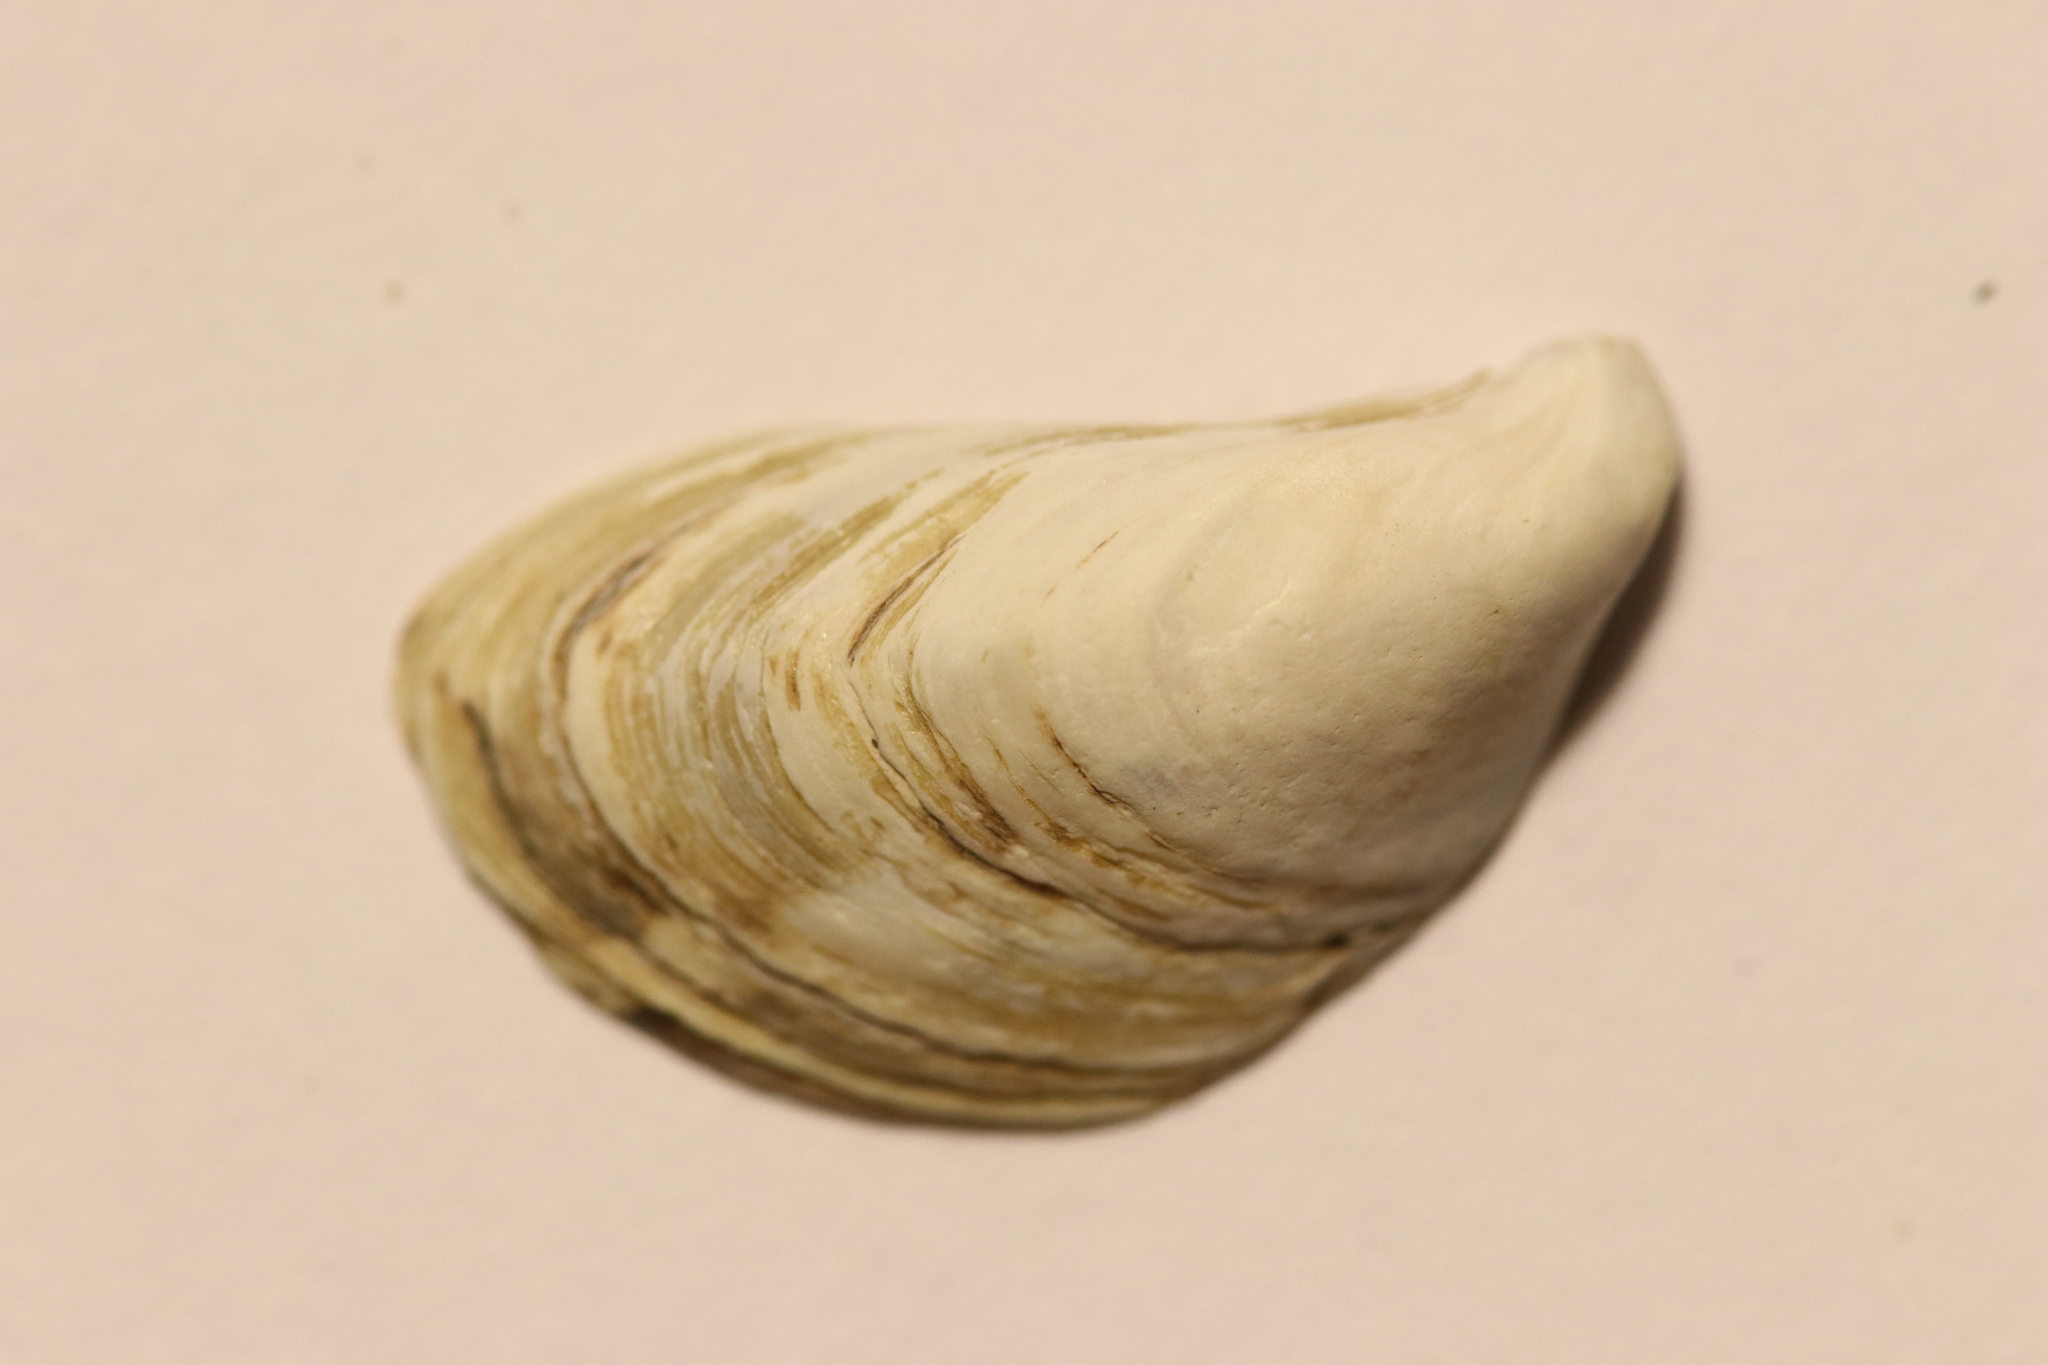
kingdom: Animalia
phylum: Mollusca
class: Bivalvia
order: Myida
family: Dreissenidae
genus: Dreissena
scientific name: Dreissena bugensis
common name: Quagga mussel
